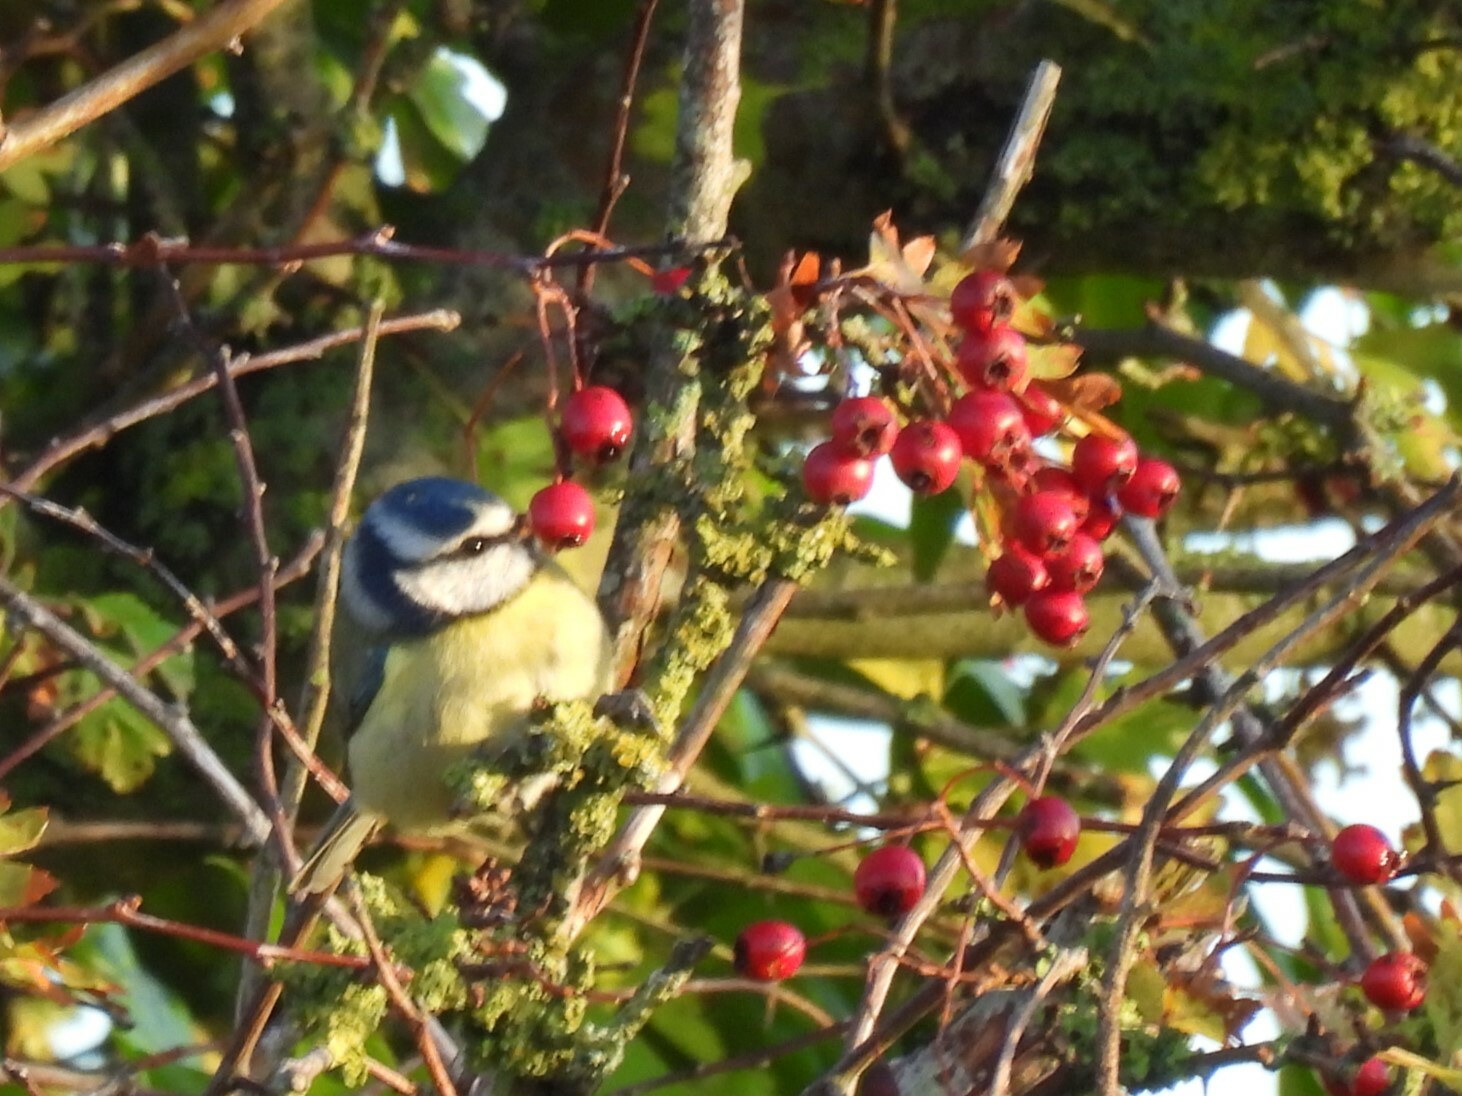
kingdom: Animalia
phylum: Chordata
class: Aves
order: Passeriformes
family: Paridae
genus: Cyanistes
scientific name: Cyanistes caeruleus
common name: Eurasian blue tit
